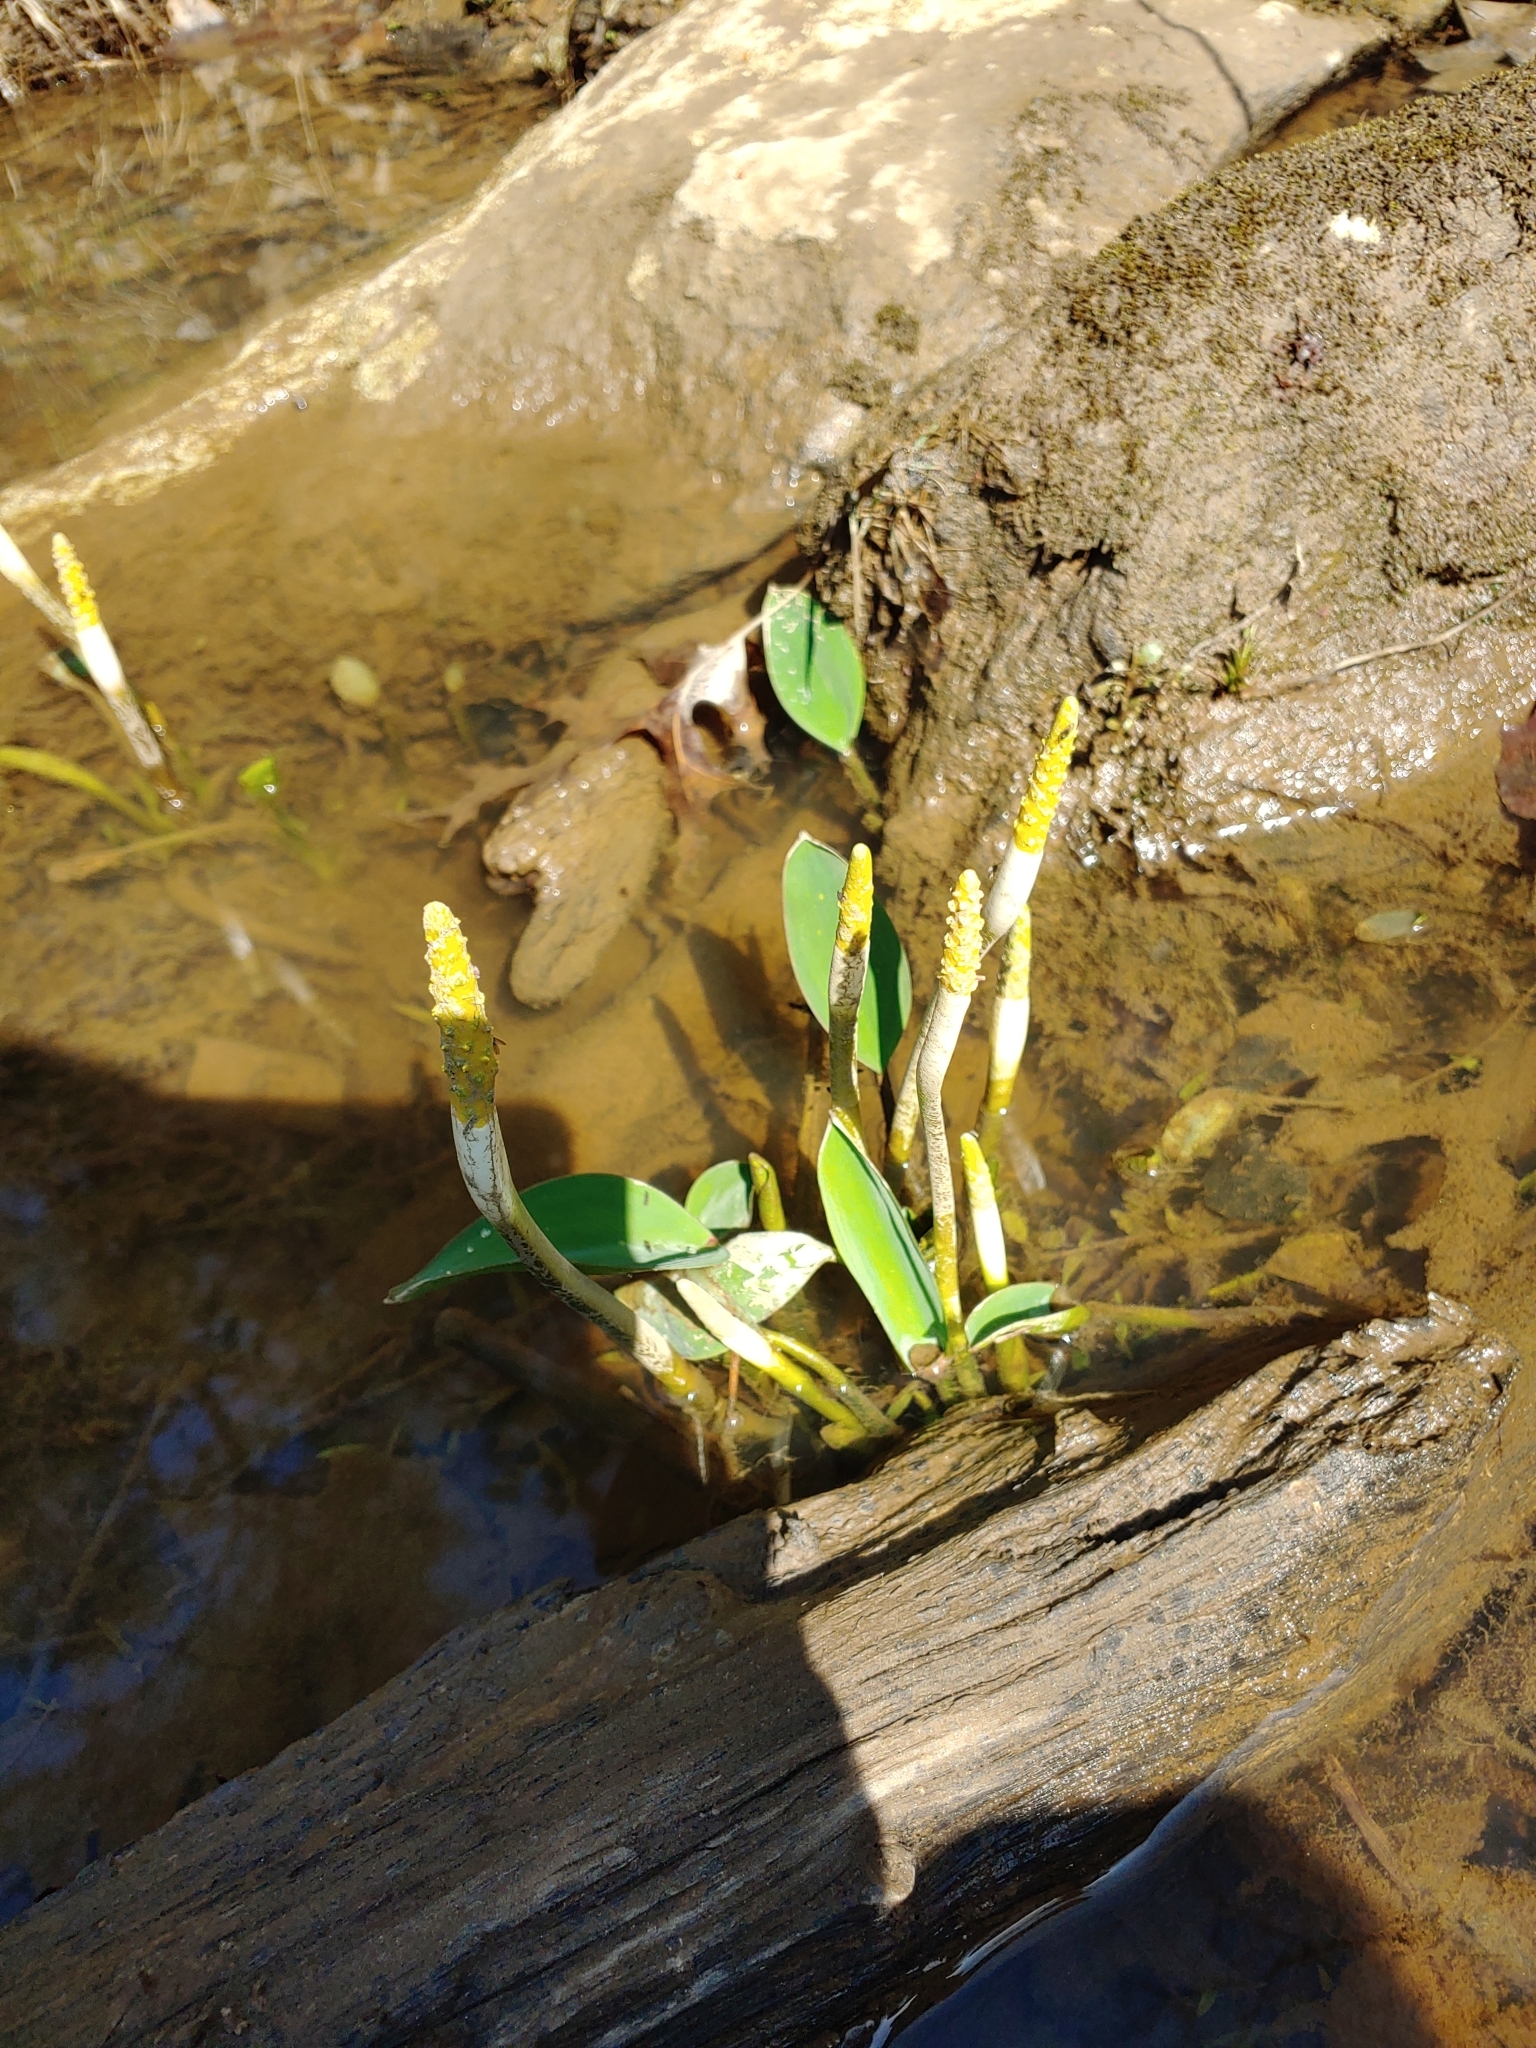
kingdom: Plantae
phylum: Tracheophyta
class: Liliopsida
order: Alismatales
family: Araceae
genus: Orontium
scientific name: Orontium aquaticum
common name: Golden-club
